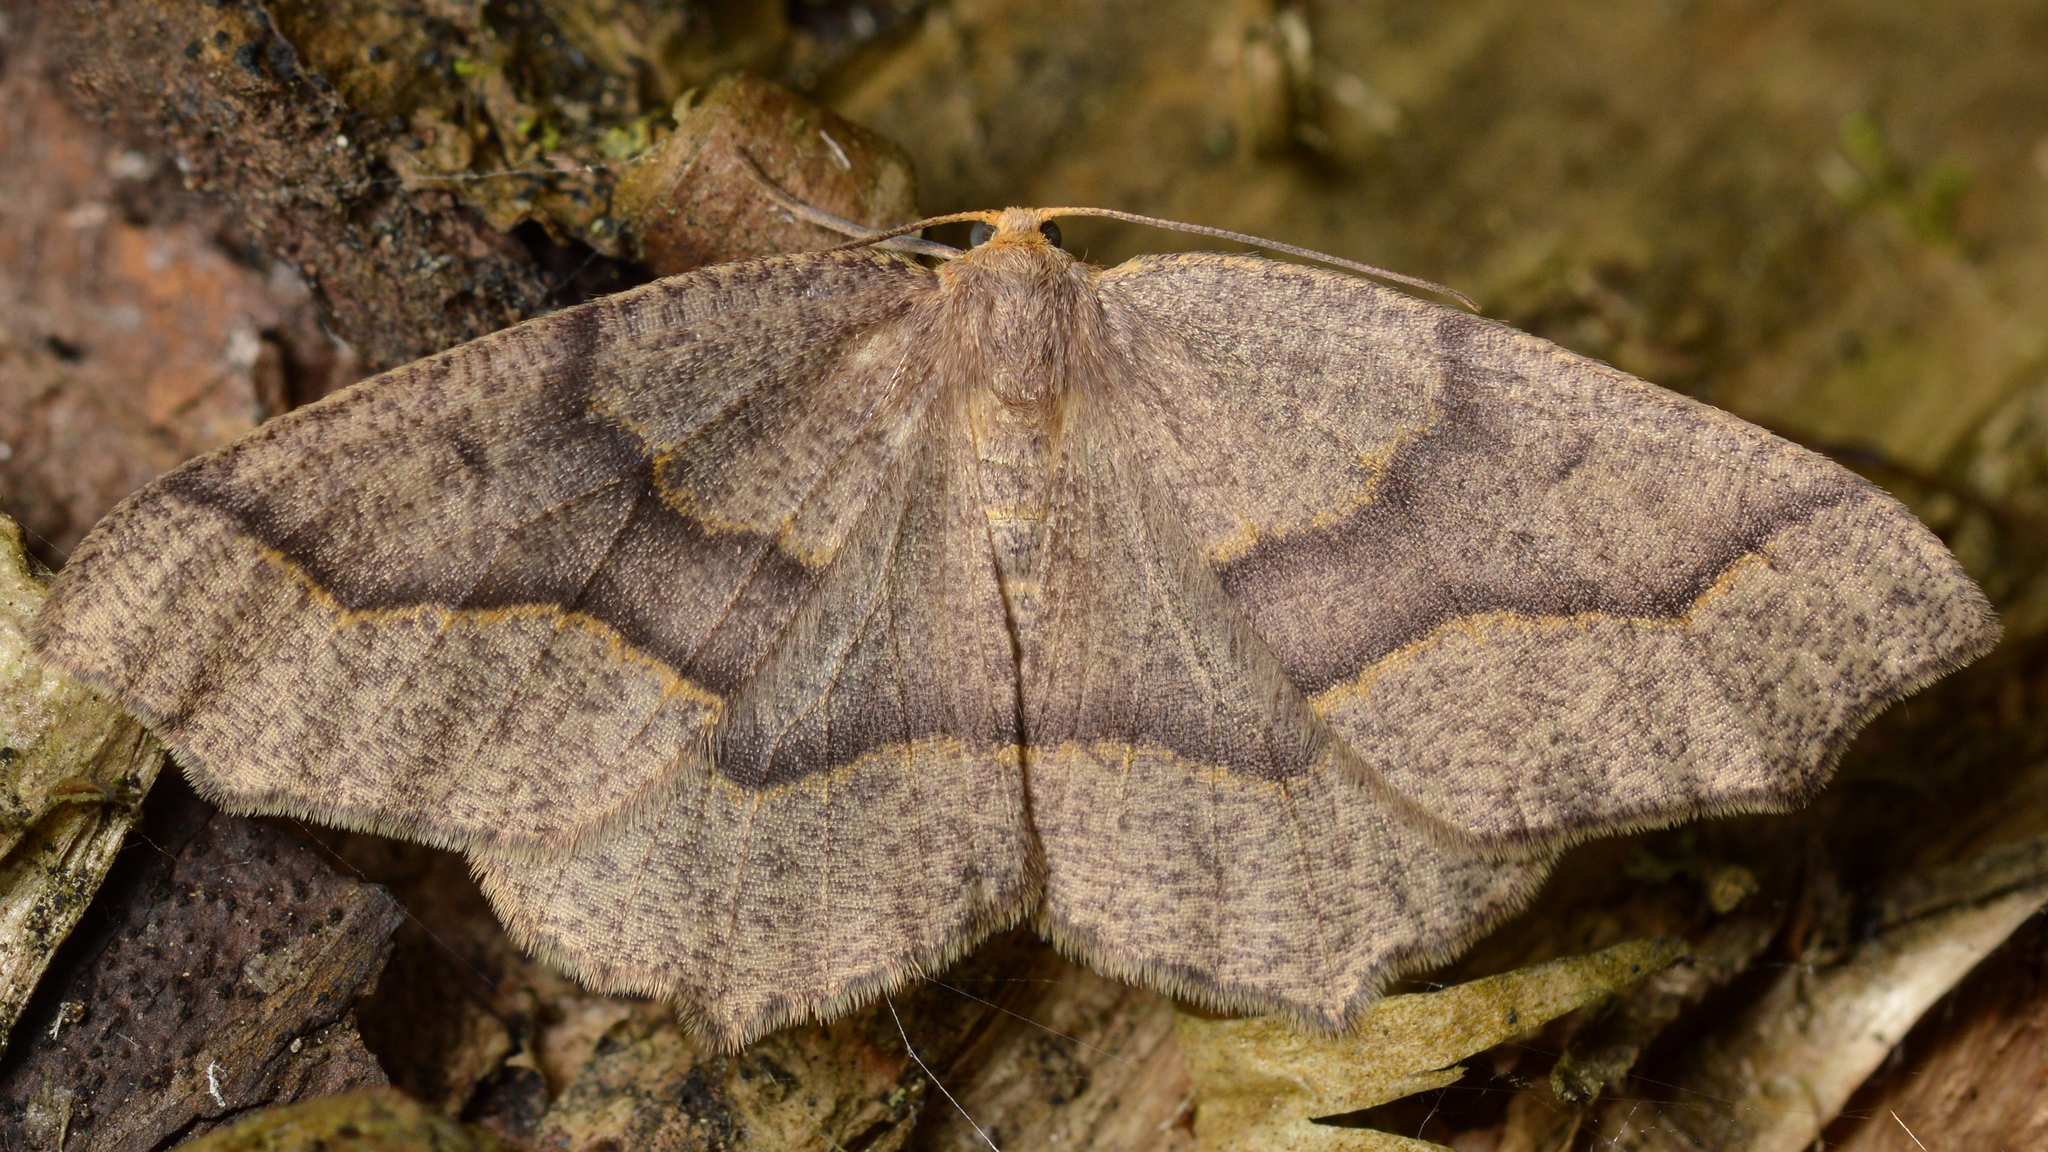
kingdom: Animalia
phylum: Arthropoda
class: Insecta
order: Lepidoptera
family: Geometridae
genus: Lambdina
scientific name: Lambdina fiscellaria
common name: Hemlock looper
